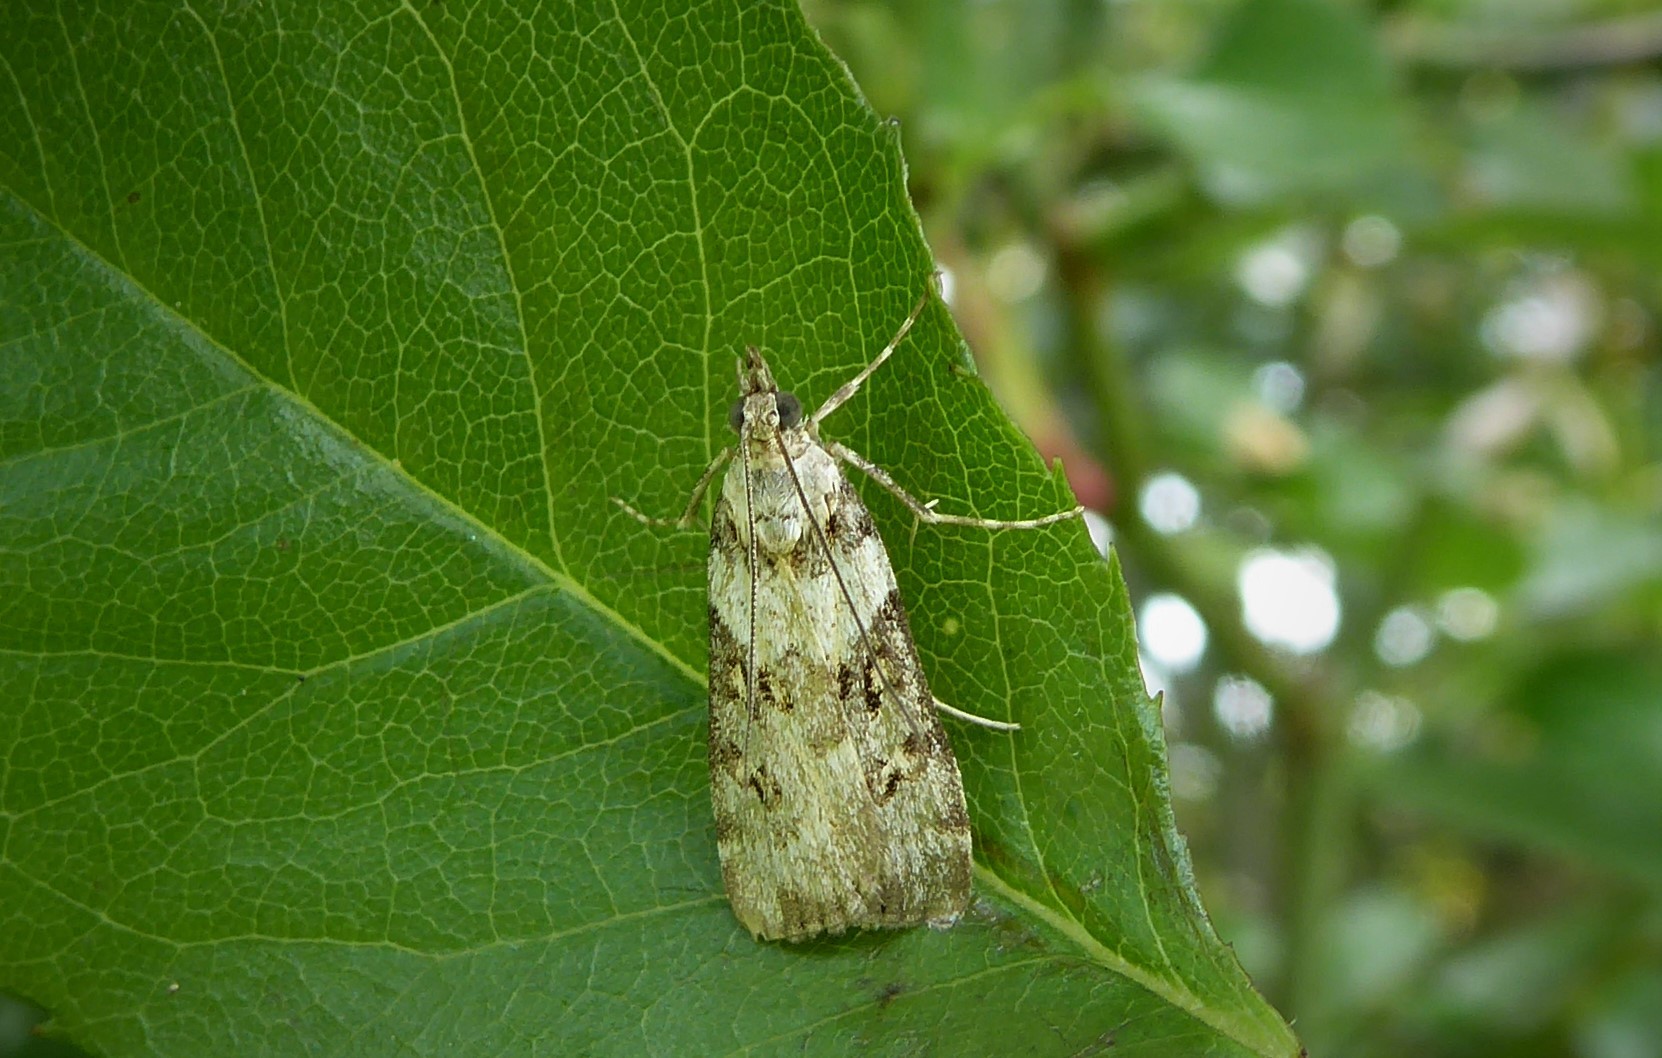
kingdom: Animalia
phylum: Arthropoda
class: Insecta
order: Lepidoptera
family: Crambidae
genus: Eudonia
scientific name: Eudonia diphtheralis
